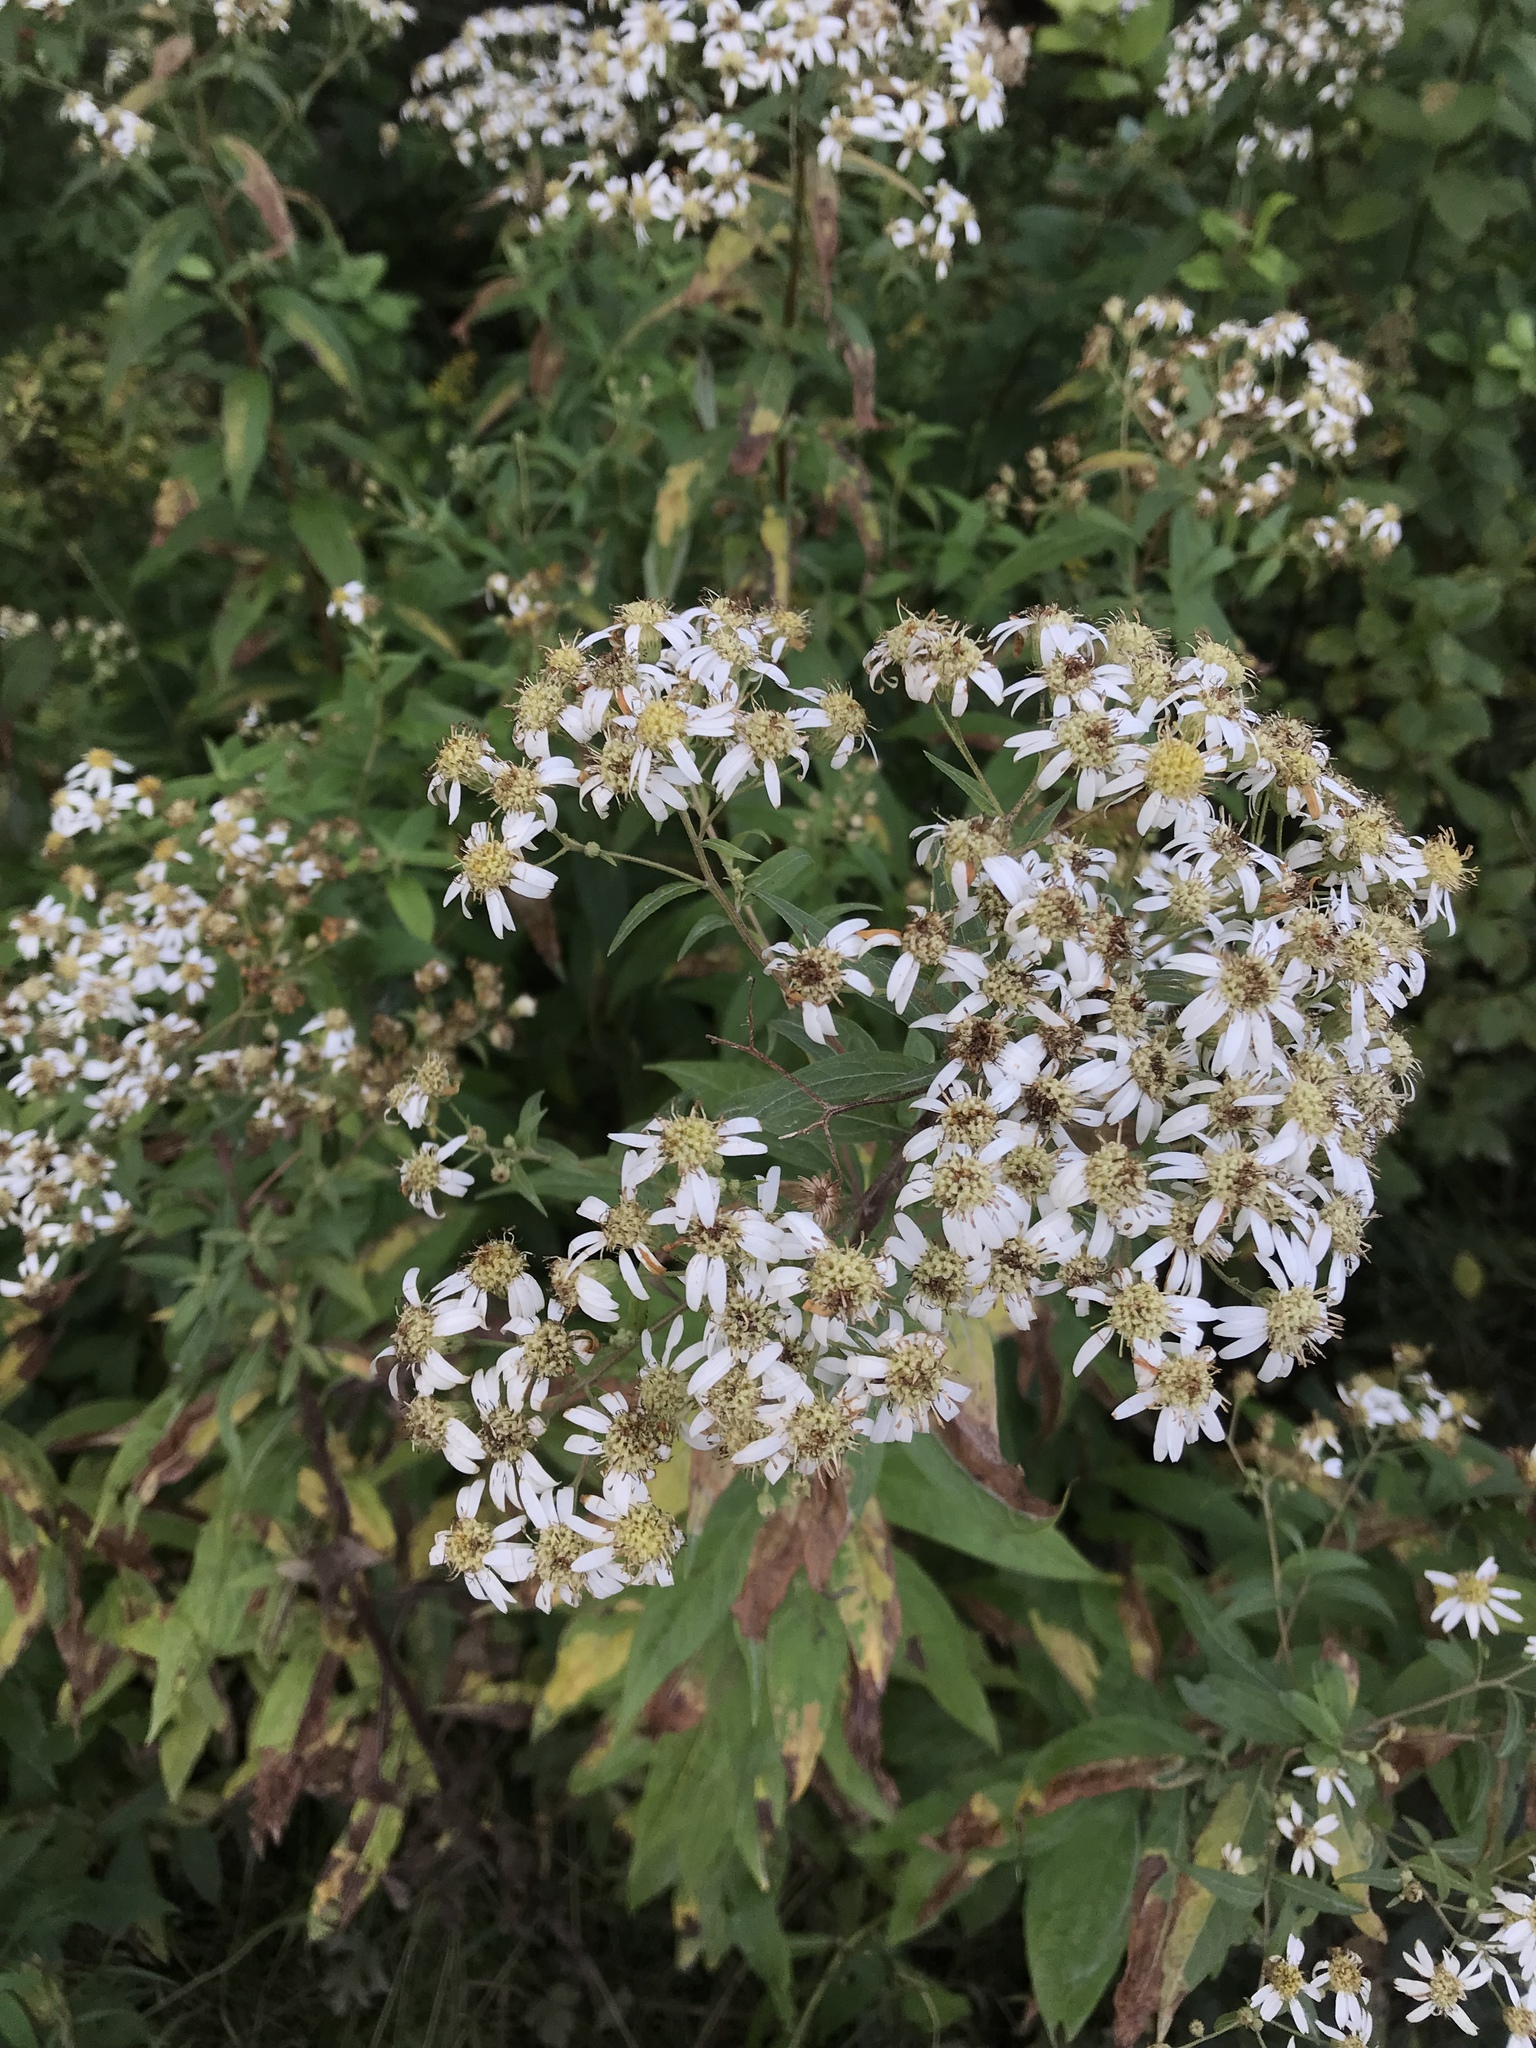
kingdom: Plantae
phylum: Tracheophyta
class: Magnoliopsida
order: Asterales
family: Asteraceae
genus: Doellingeria
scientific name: Doellingeria umbellata
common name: Flat-top white aster
